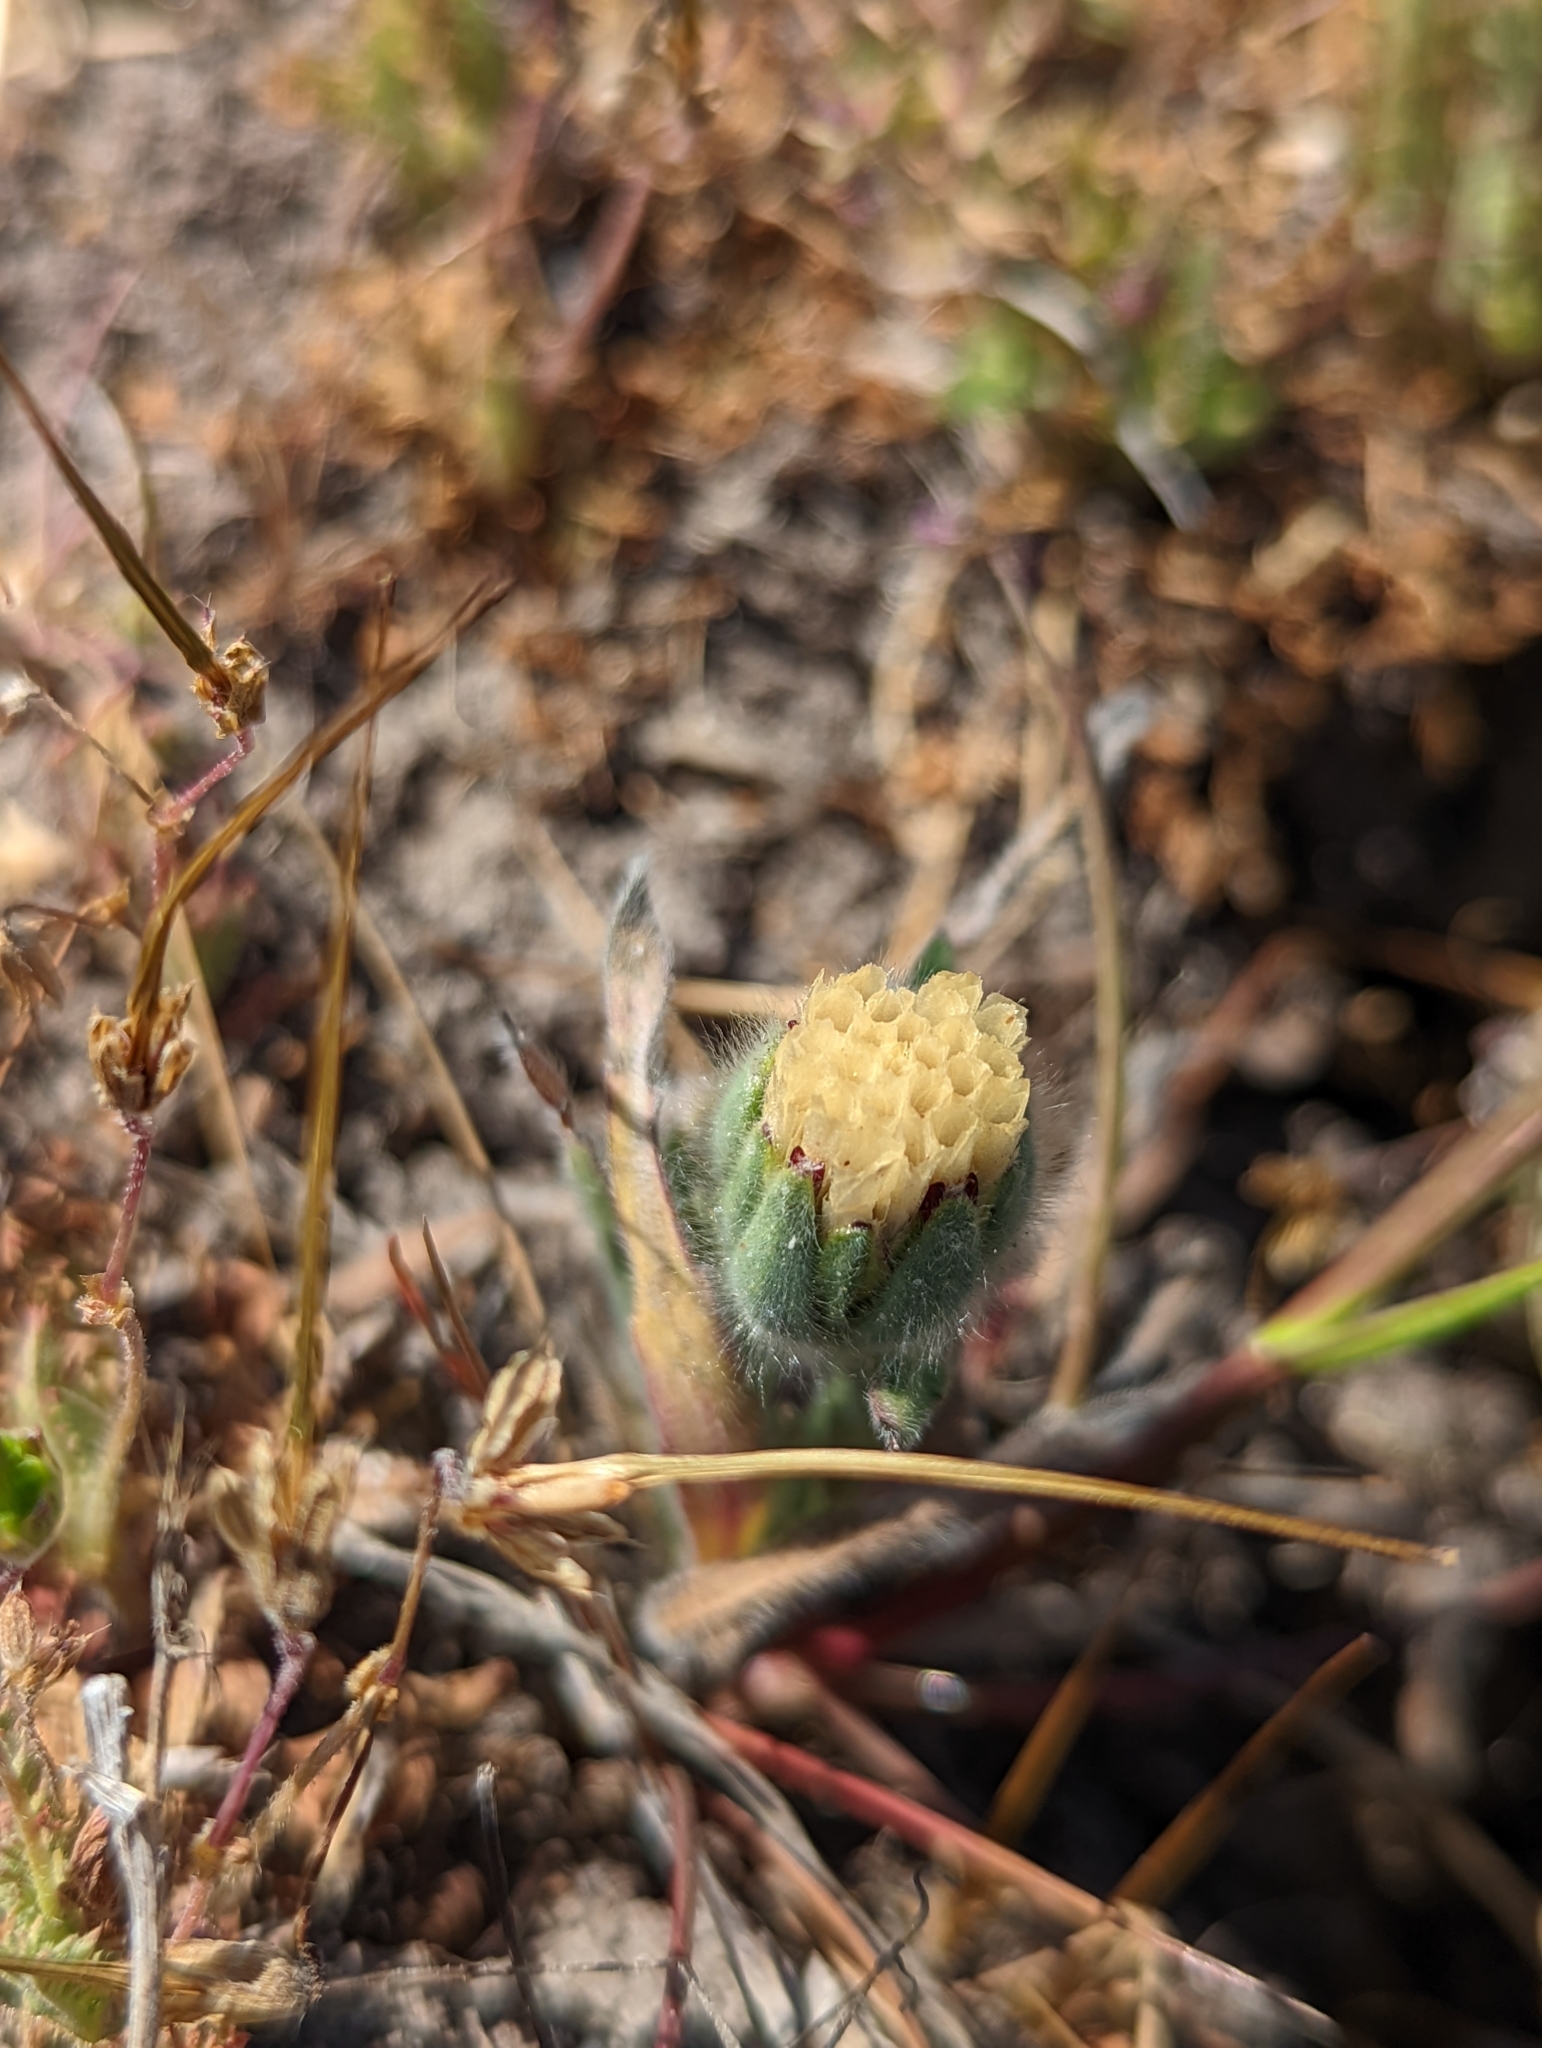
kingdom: Plantae
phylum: Tracheophyta
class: Magnoliopsida
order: Asterales
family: Asteraceae
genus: Achyrachaena
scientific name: Achyrachaena mollis
